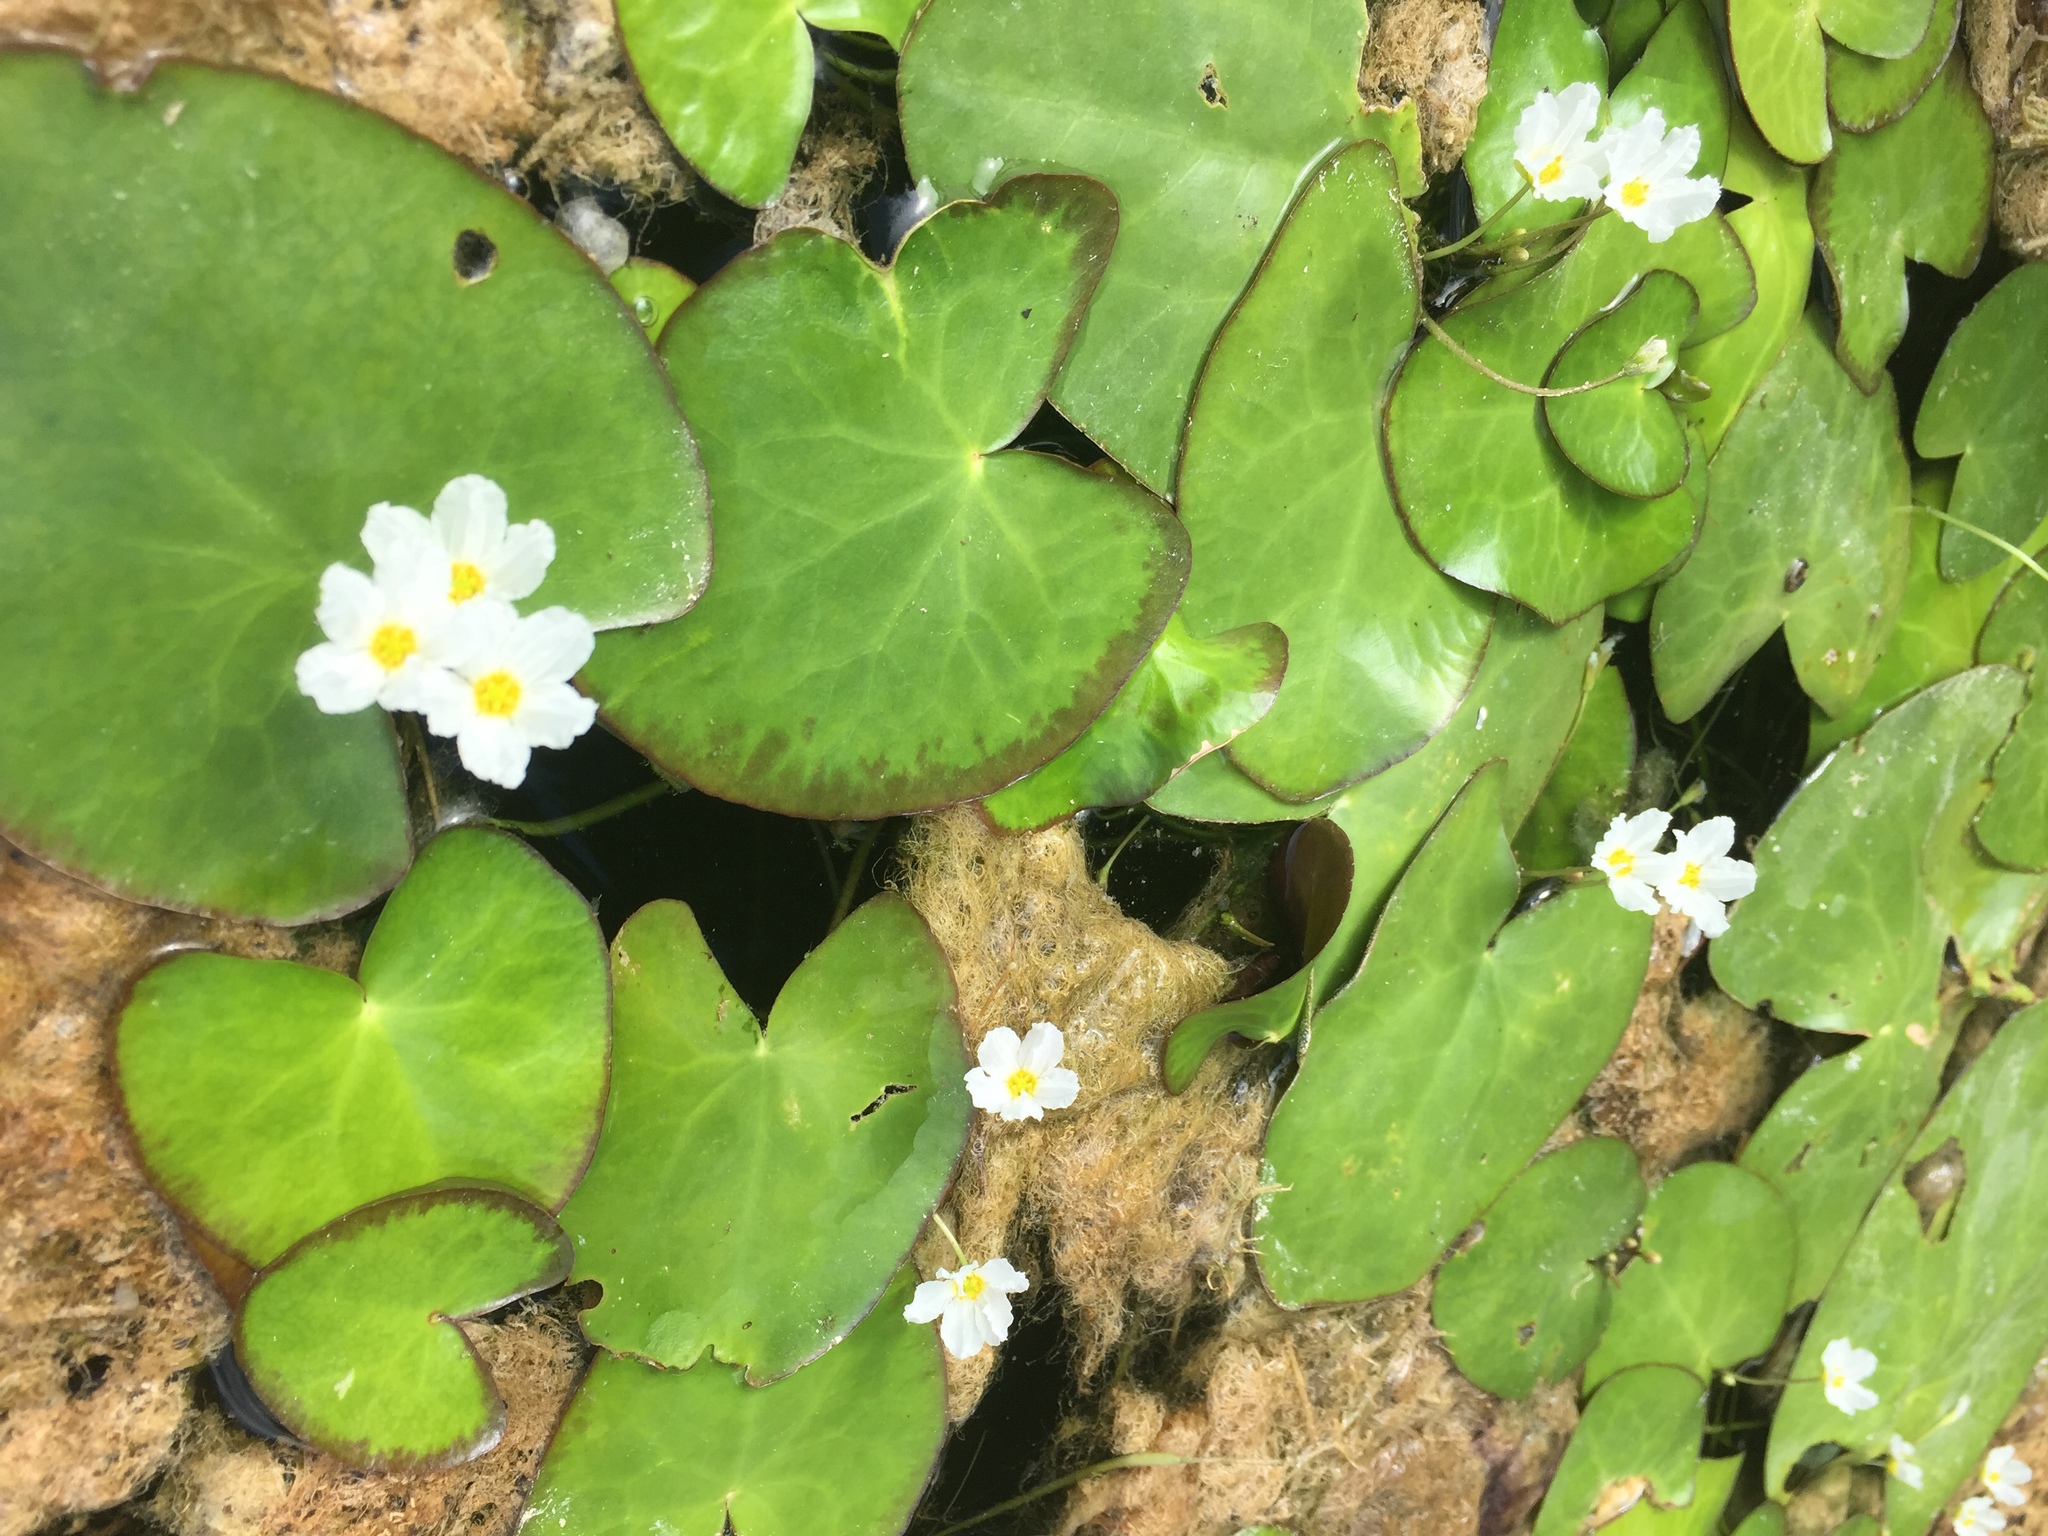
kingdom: Plantae
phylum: Tracheophyta
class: Magnoliopsida
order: Asterales
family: Menyanthaceae
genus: Nymphoides
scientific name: Nymphoides hydrophylla
